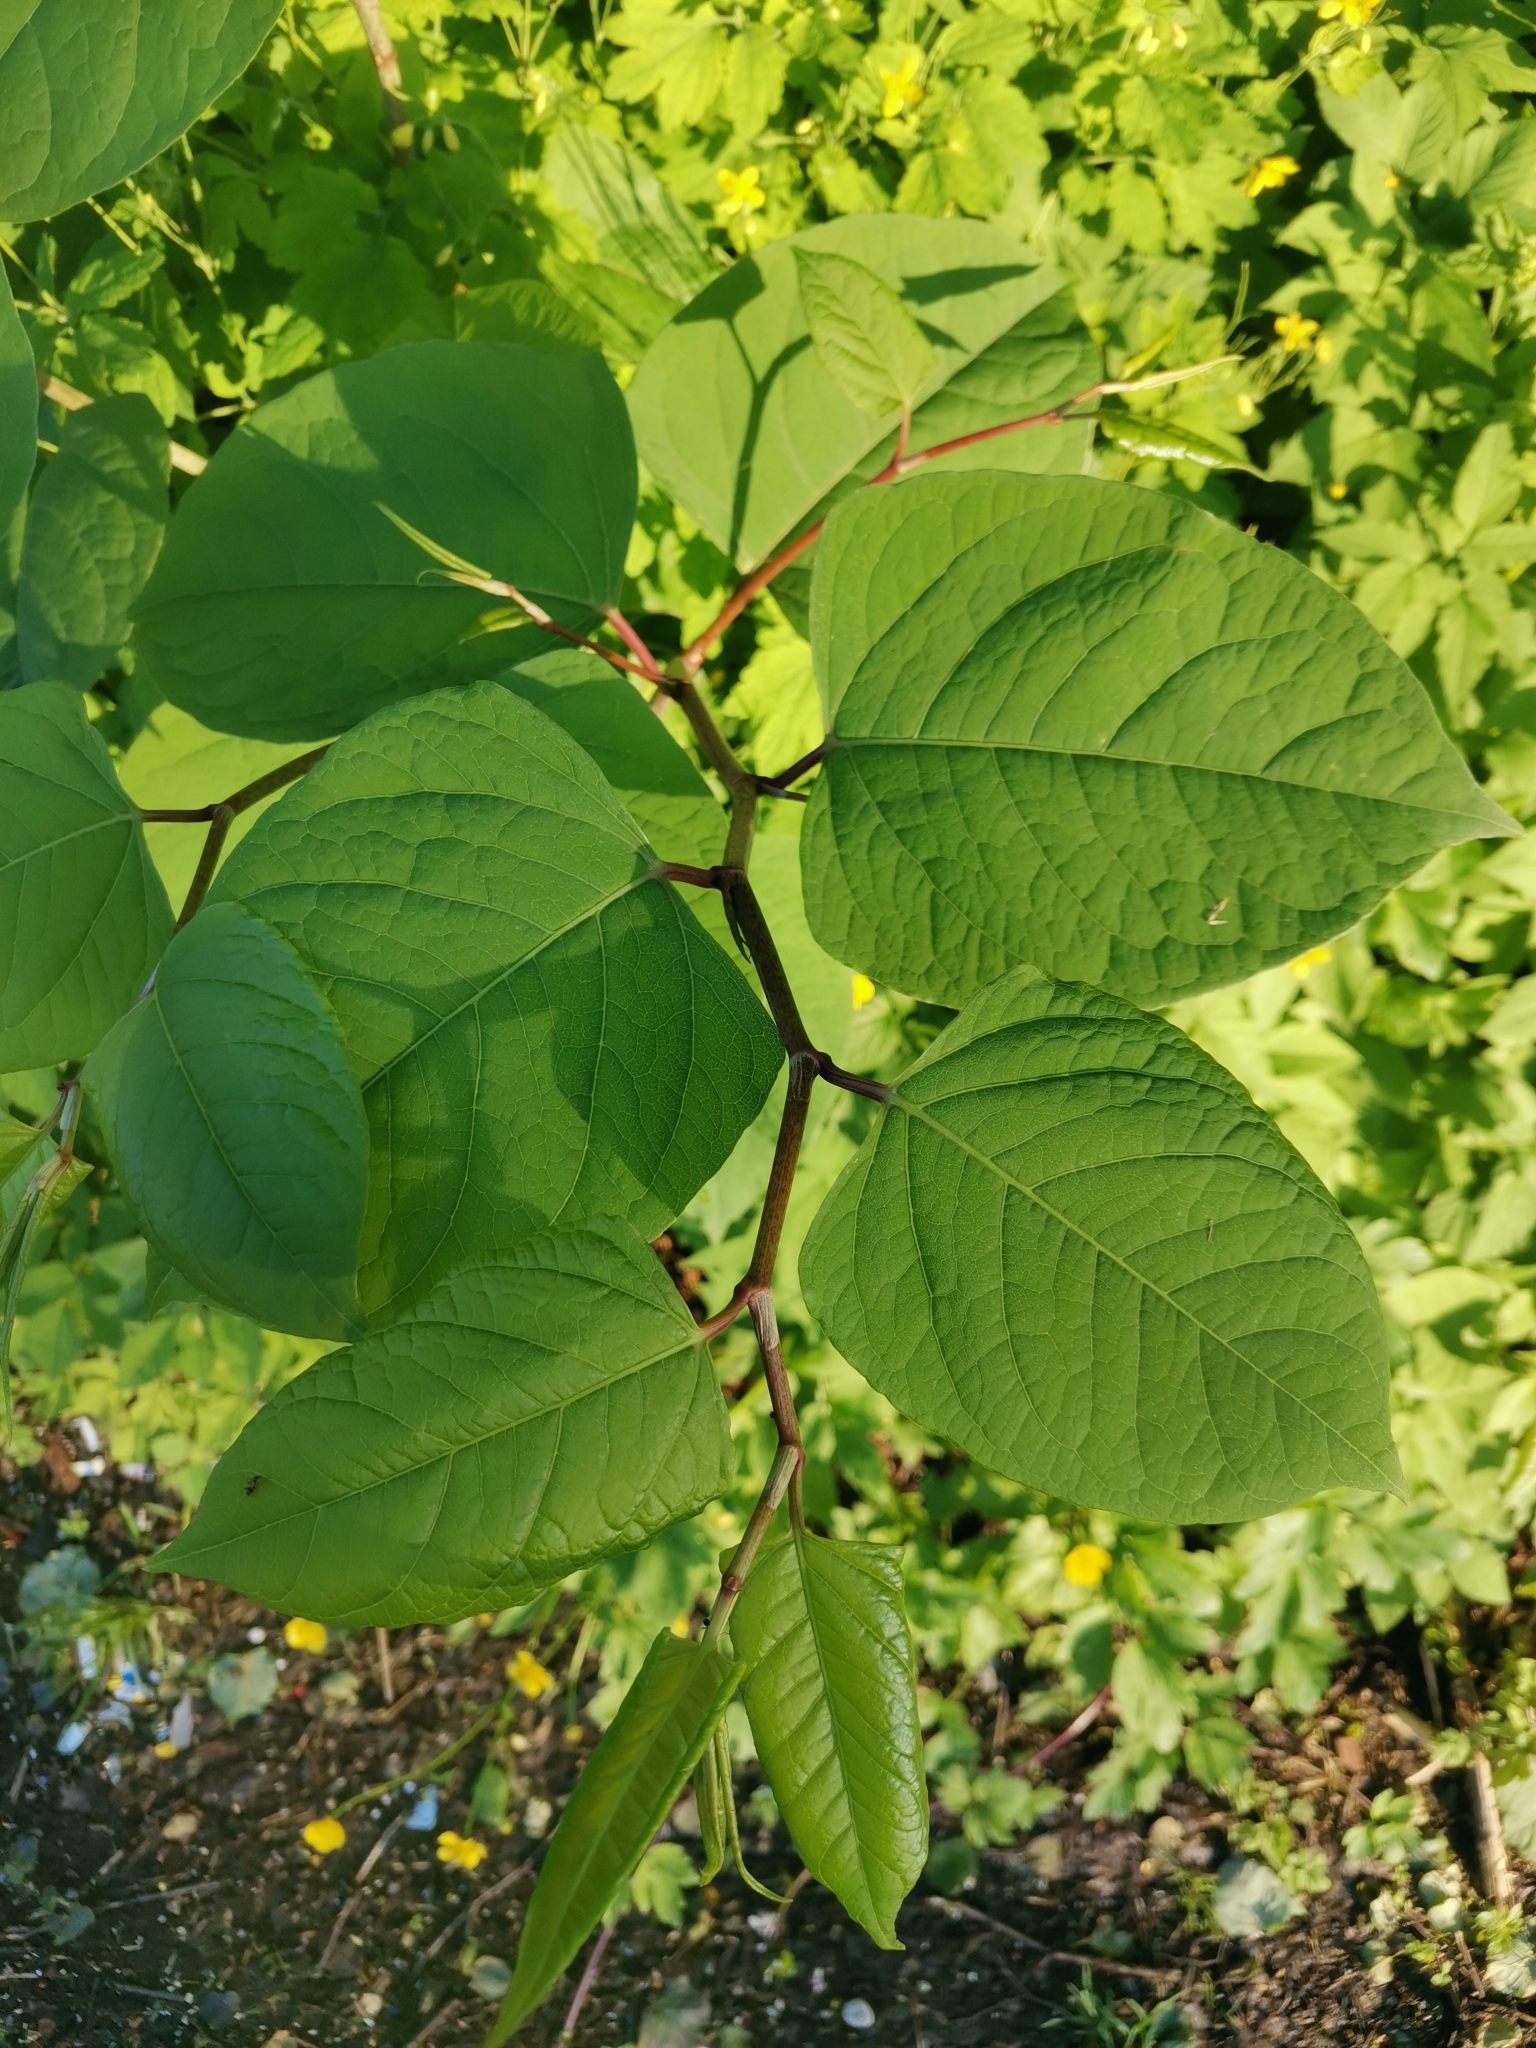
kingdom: Plantae
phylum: Tracheophyta
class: Magnoliopsida
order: Caryophyllales
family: Polygonaceae
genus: Reynoutria
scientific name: Reynoutria japonica
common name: Japanese knotweed
